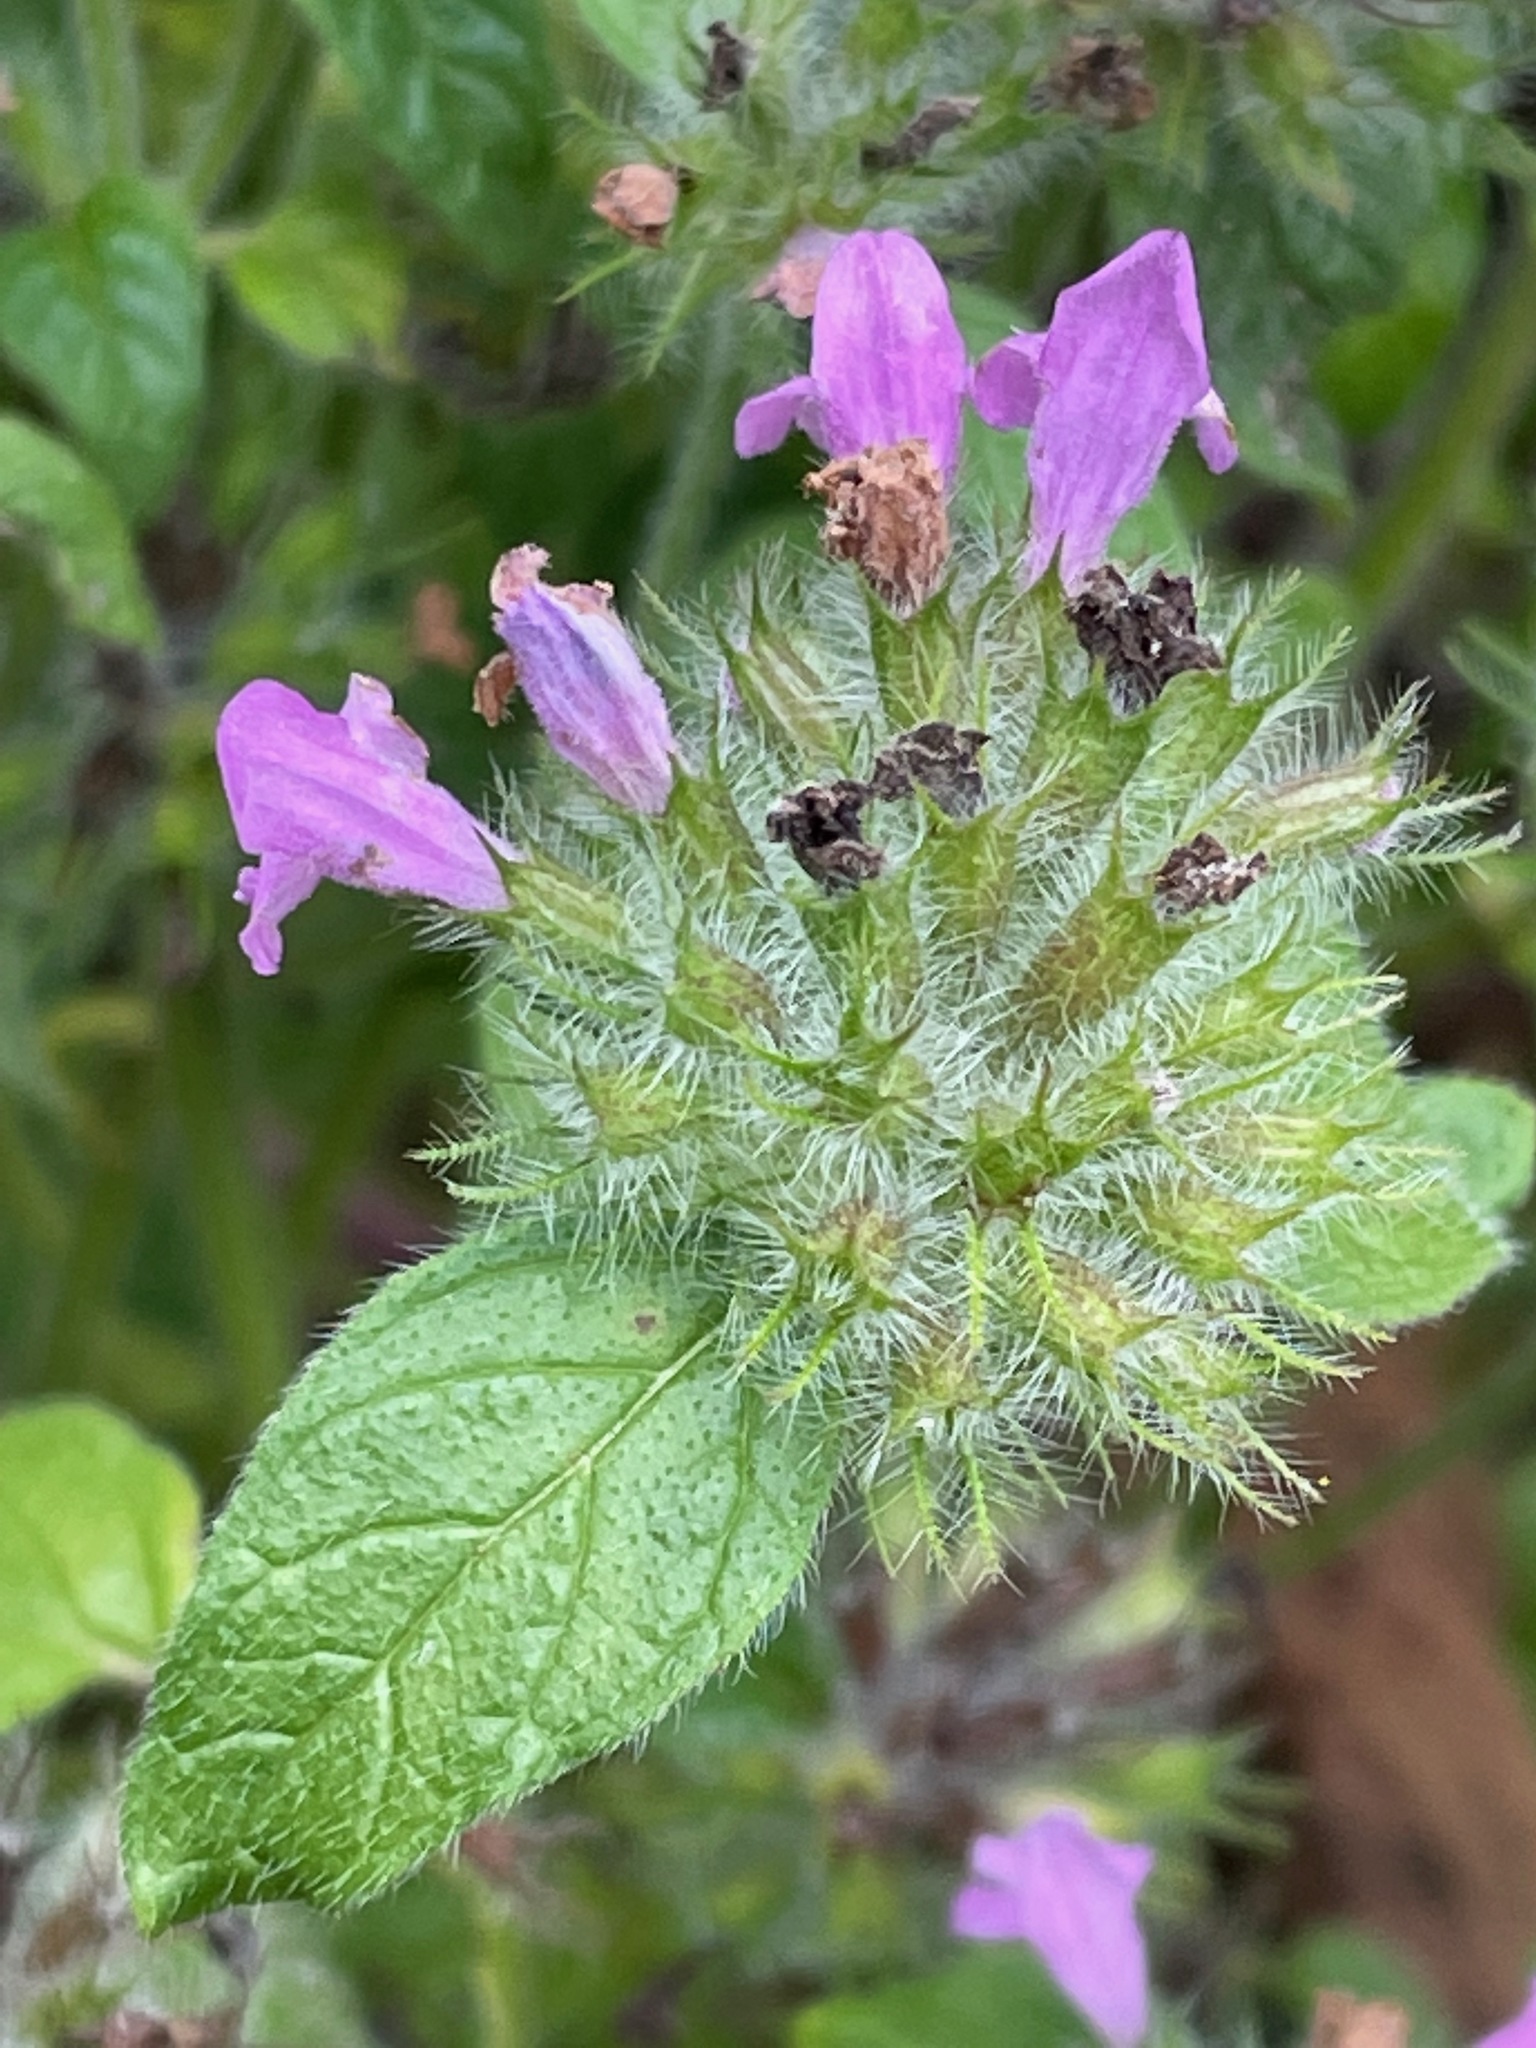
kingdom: Plantae
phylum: Tracheophyta
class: Magnoliopsida
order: Lamiales
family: Lamiaceae
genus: Clinopodium
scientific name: Clinopodium vulgare
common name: Wild basil
